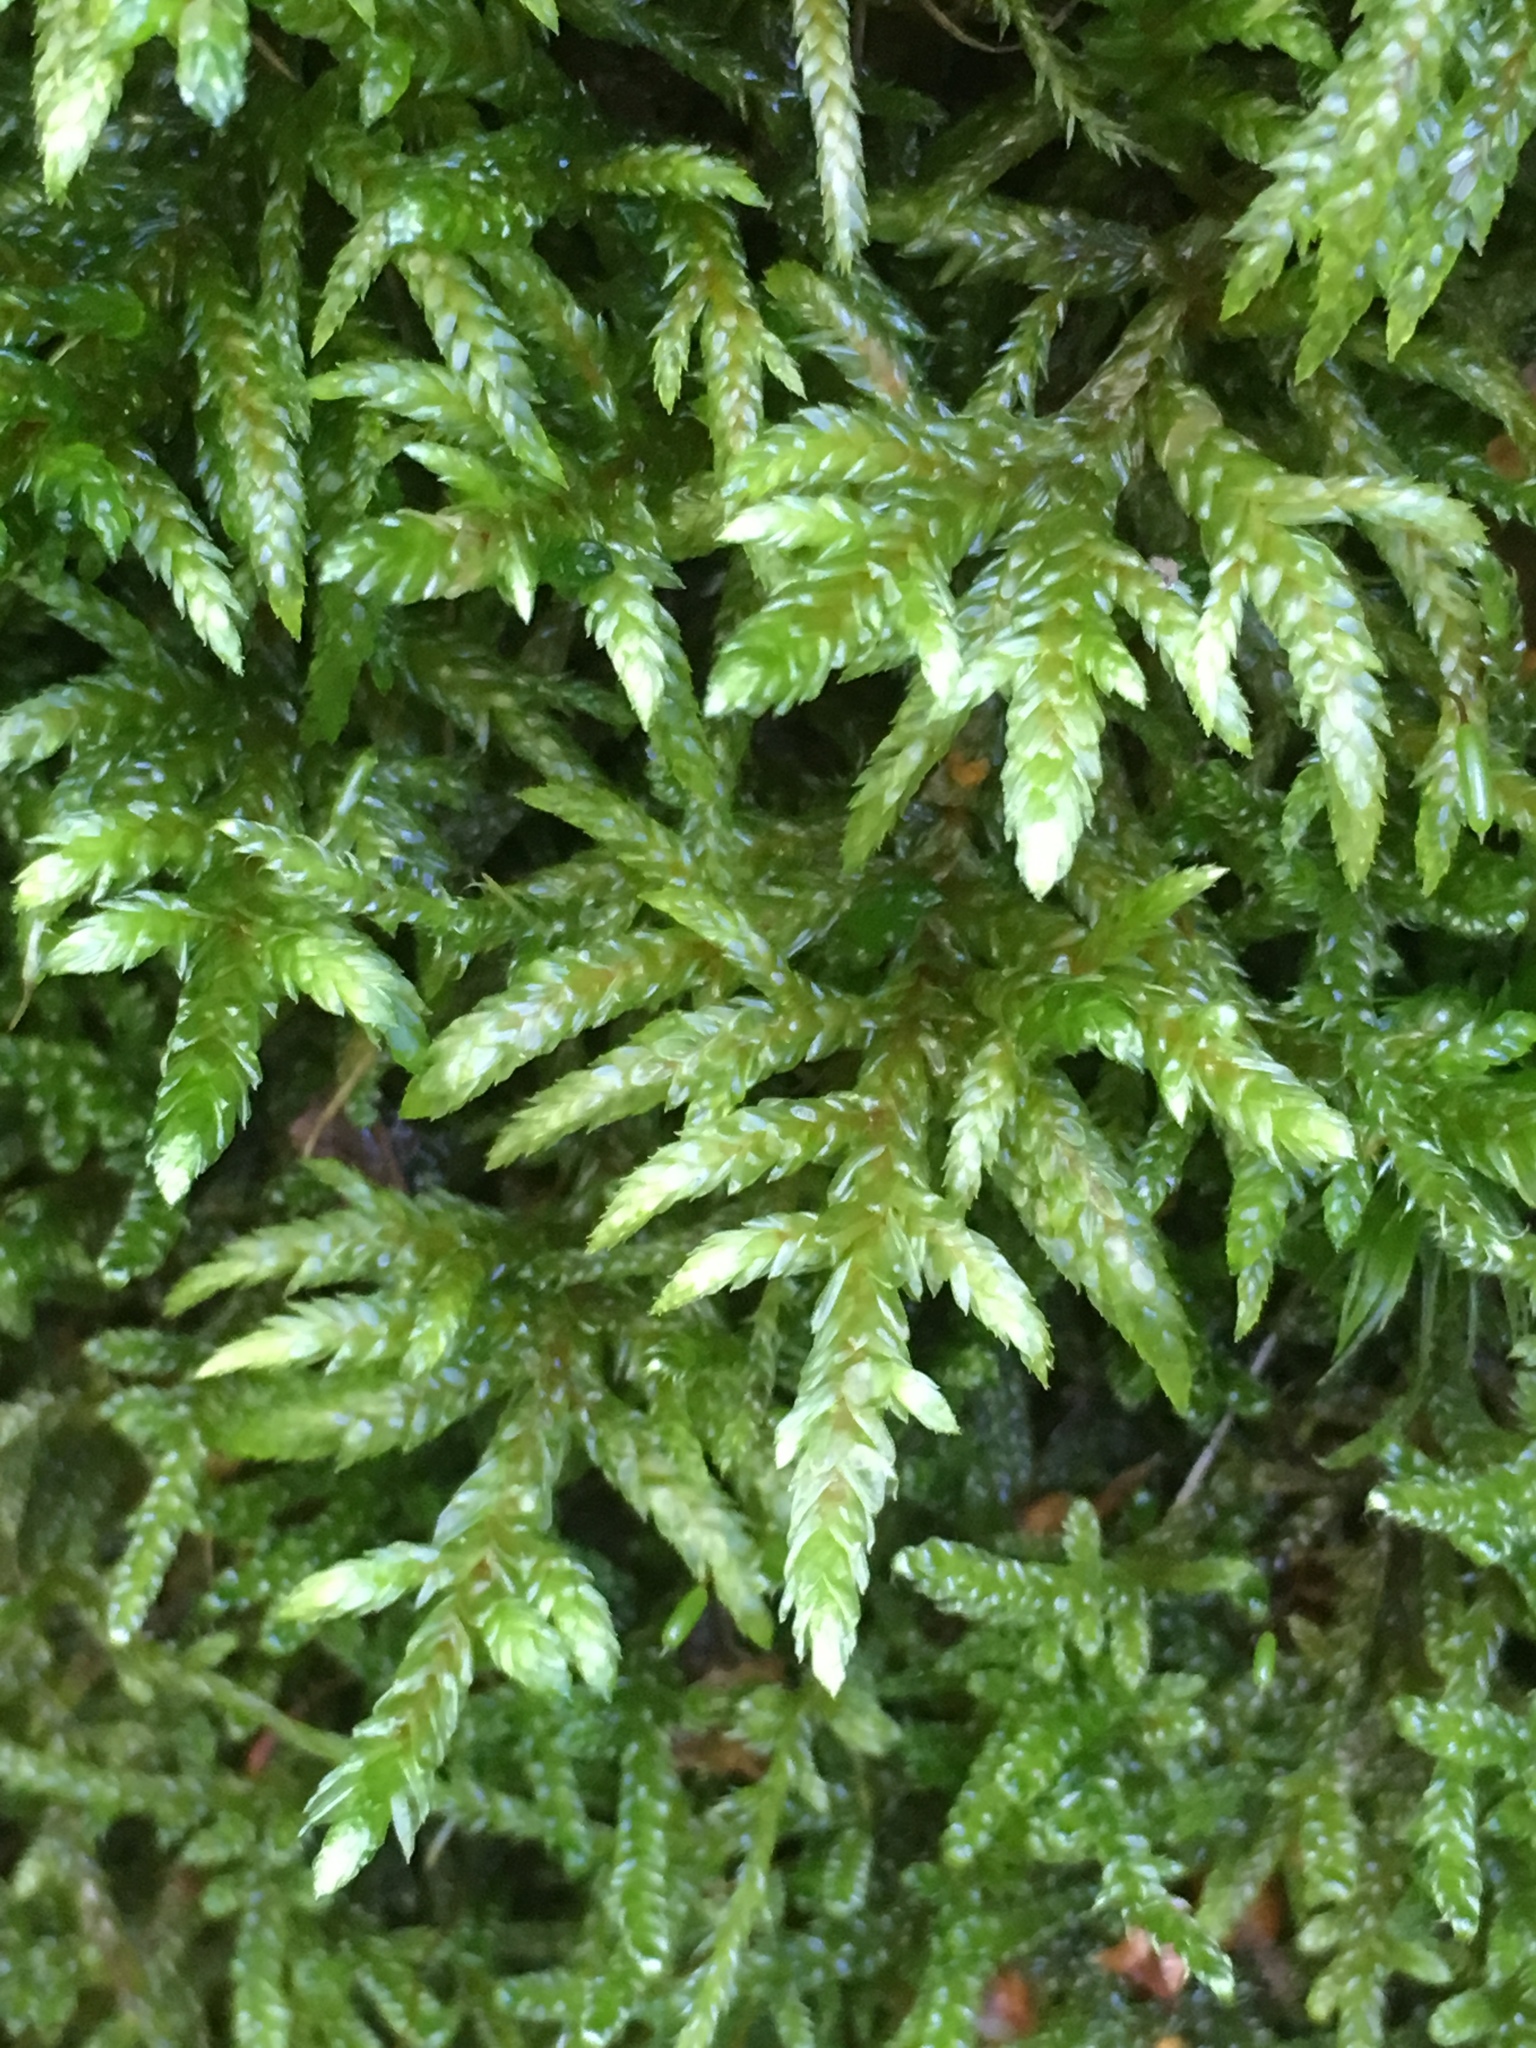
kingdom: Plantae
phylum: Bryophyta
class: Bryopsida
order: Hypnales
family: Hylocomiaceae
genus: Pleurozium
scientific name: Pleurozium schreberi
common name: Red-stemmed feather moss
